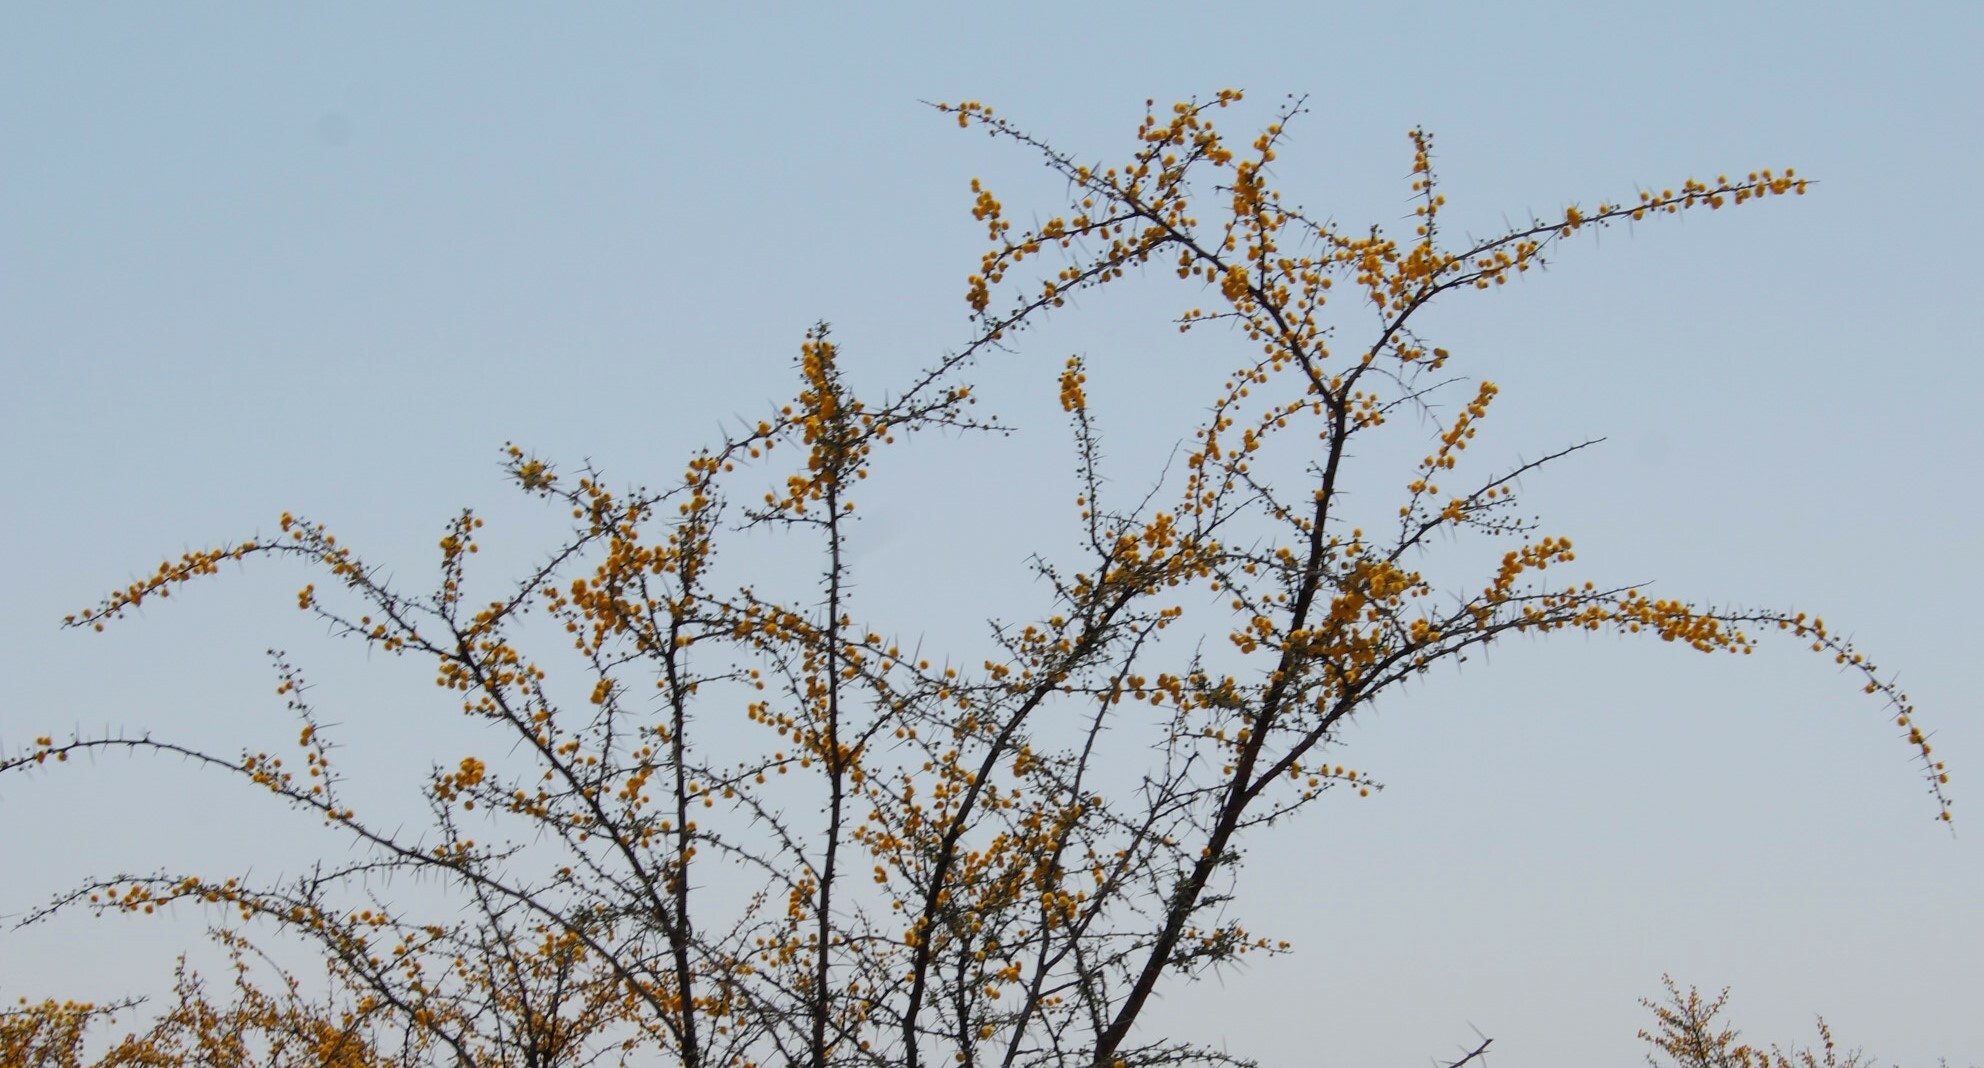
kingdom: Plantae
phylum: Tracheophyta
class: Magnoliopsida
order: Fabales
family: Fabaceae
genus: Vachellia
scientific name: Vachellia nebrownii
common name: Water acacia
